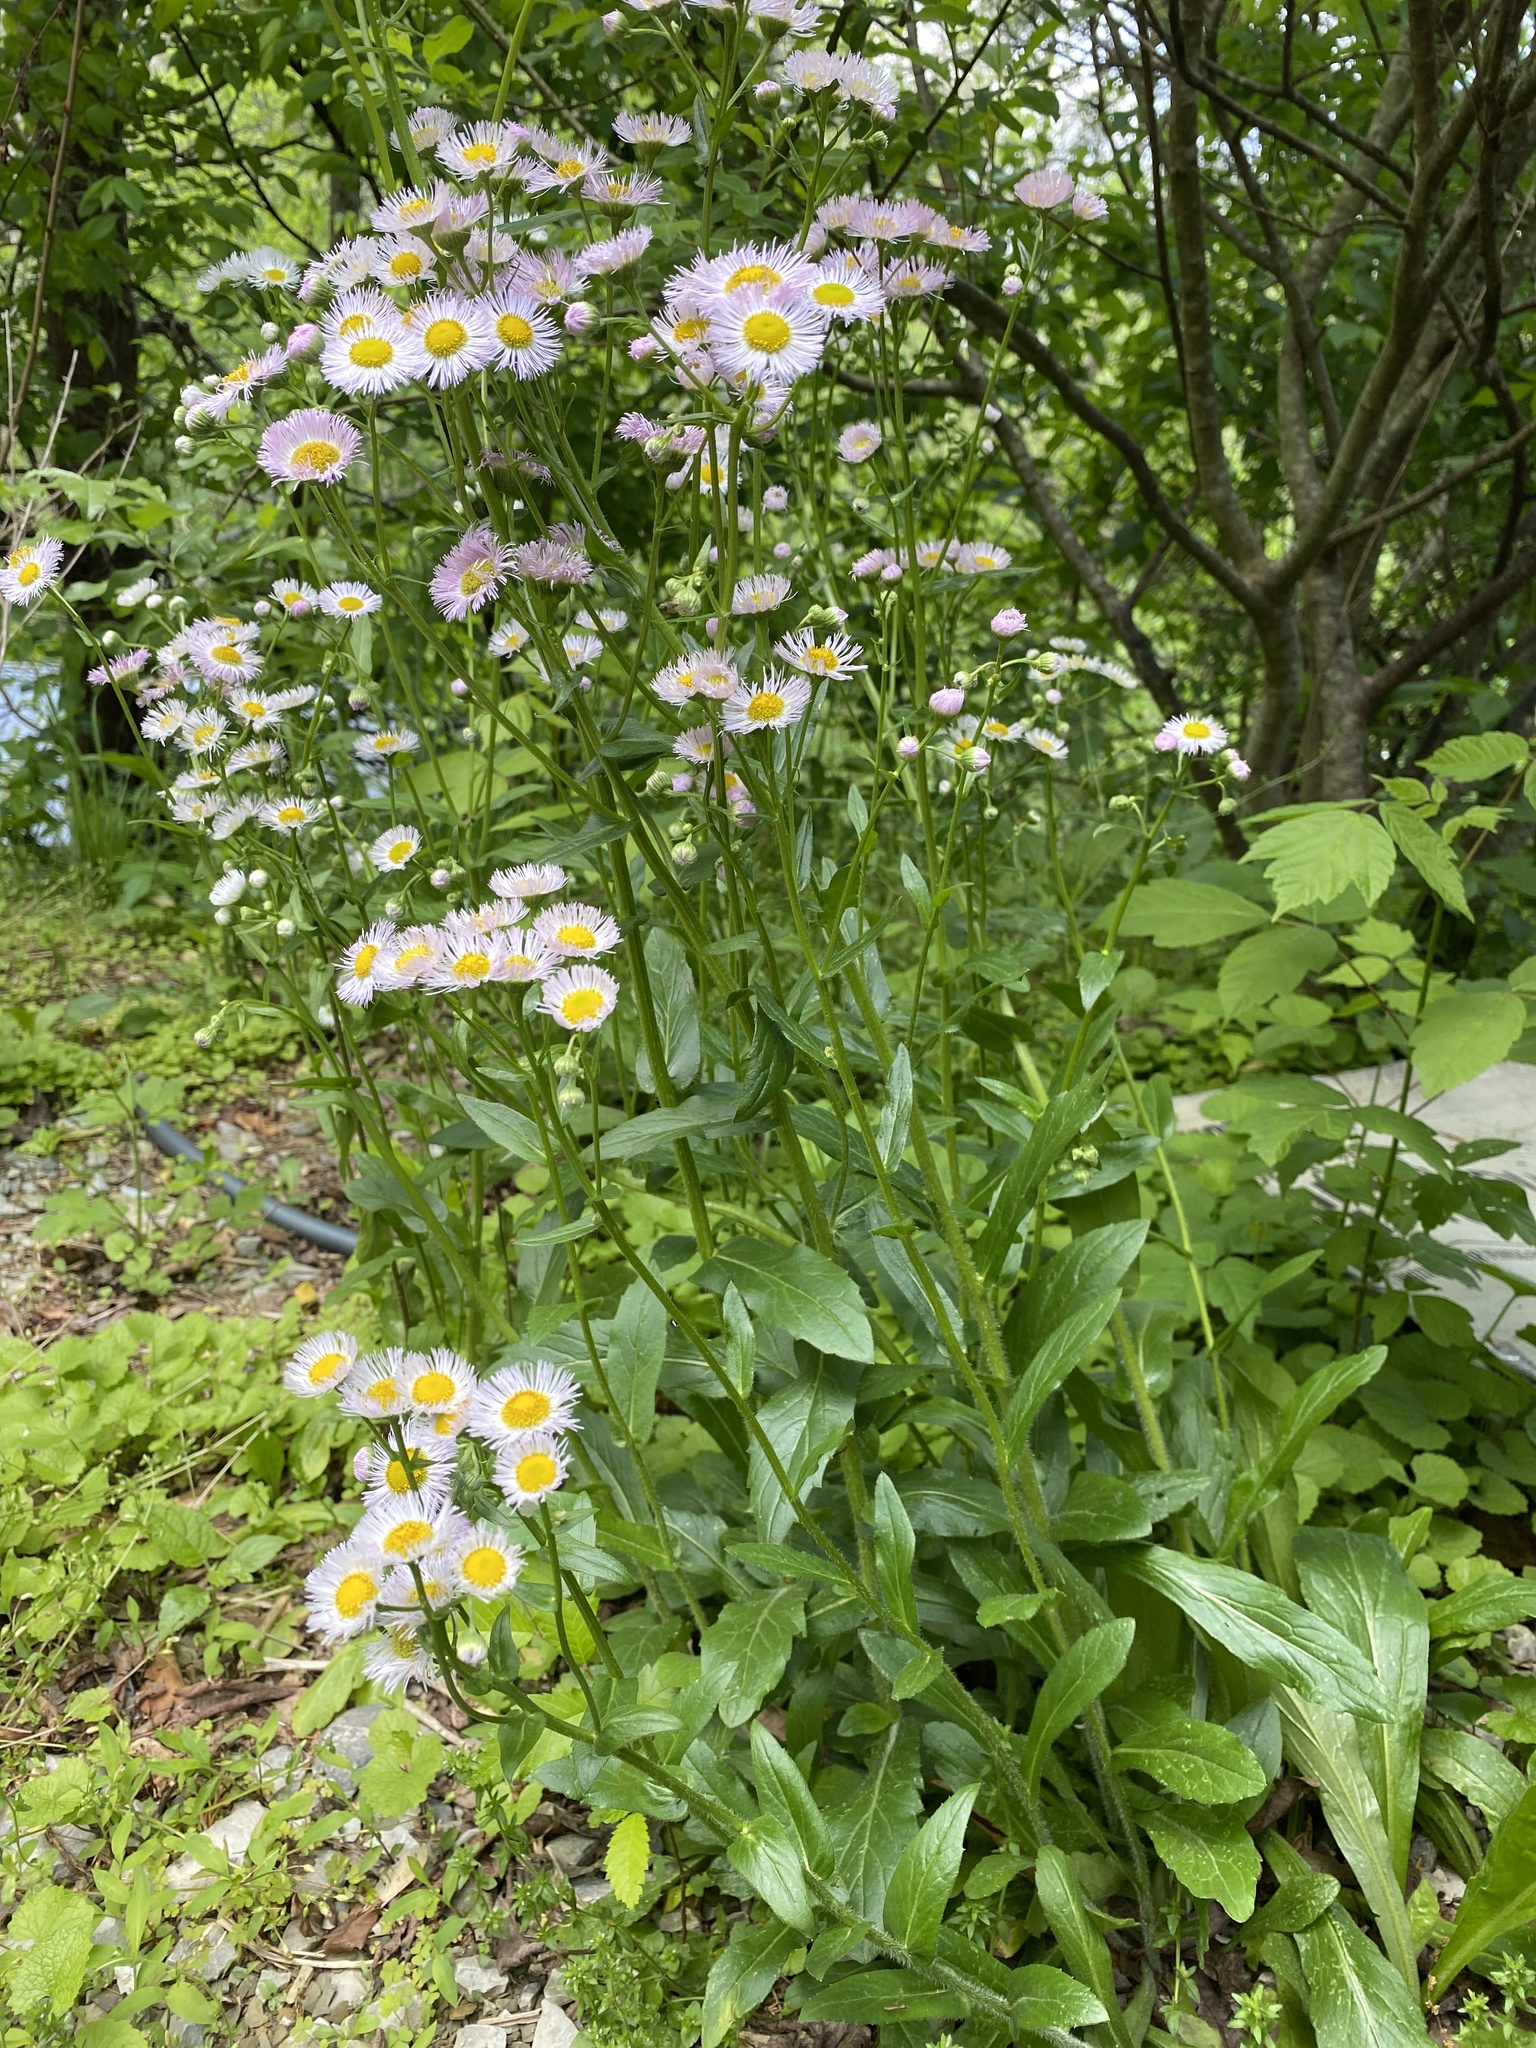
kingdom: Plantae
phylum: Tracheophyta
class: Magnoliopsida
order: Asterales
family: Asteraceae
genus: Erigeron
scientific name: Erigeron philadelphicus
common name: Robin's-plantain
